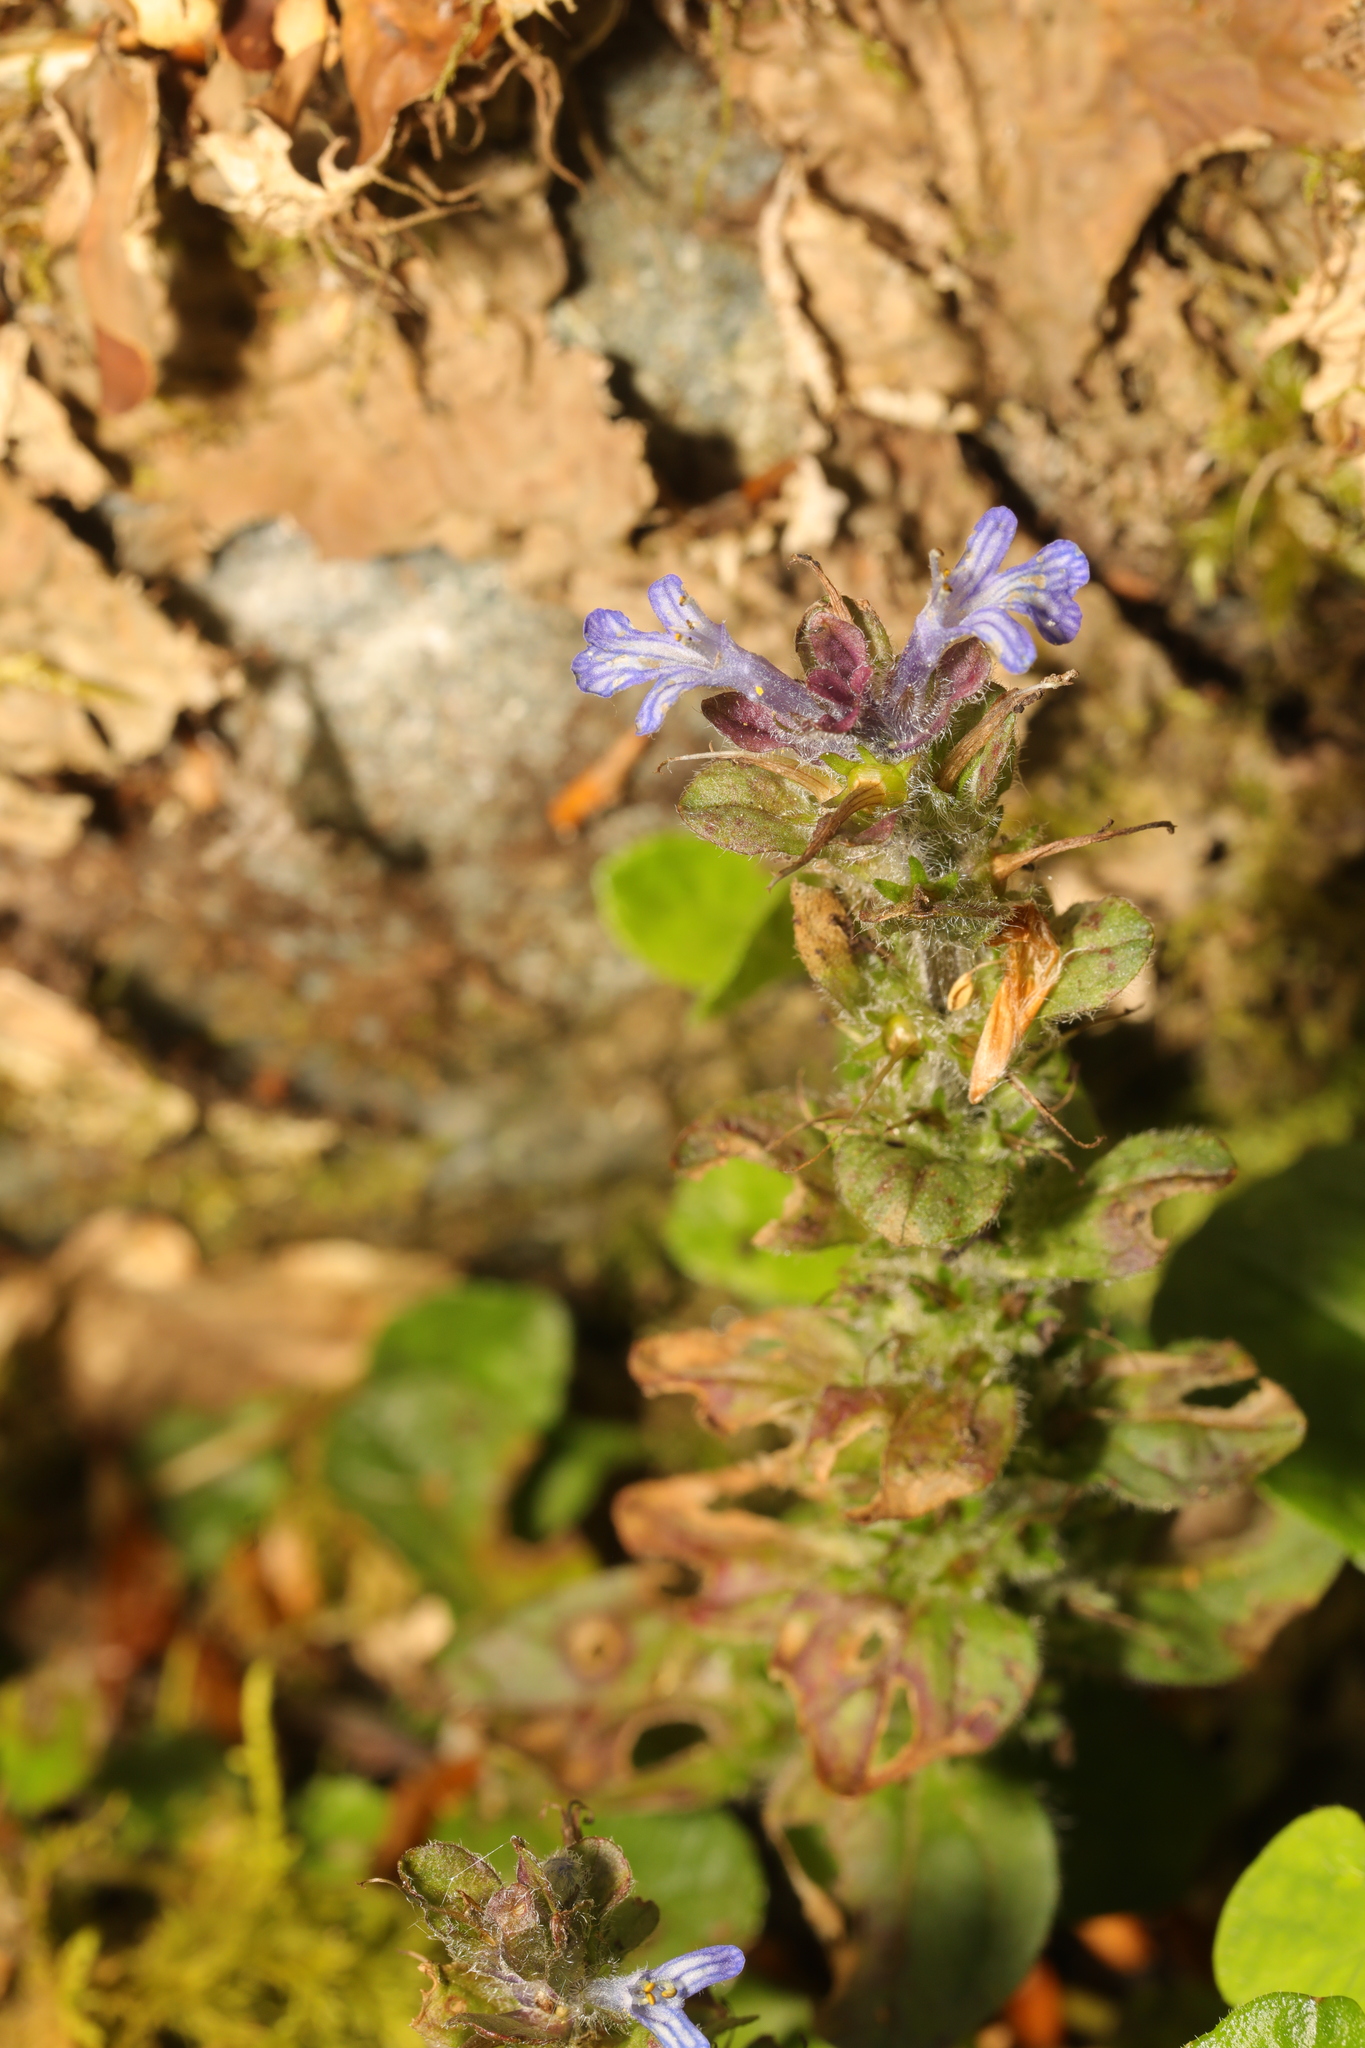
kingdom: Plantae
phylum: Tracheophyta
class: Magnoliopsida
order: Lamiales
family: Lamiaceae
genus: Ajuga
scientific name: Ajuga reptans
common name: Bugle
